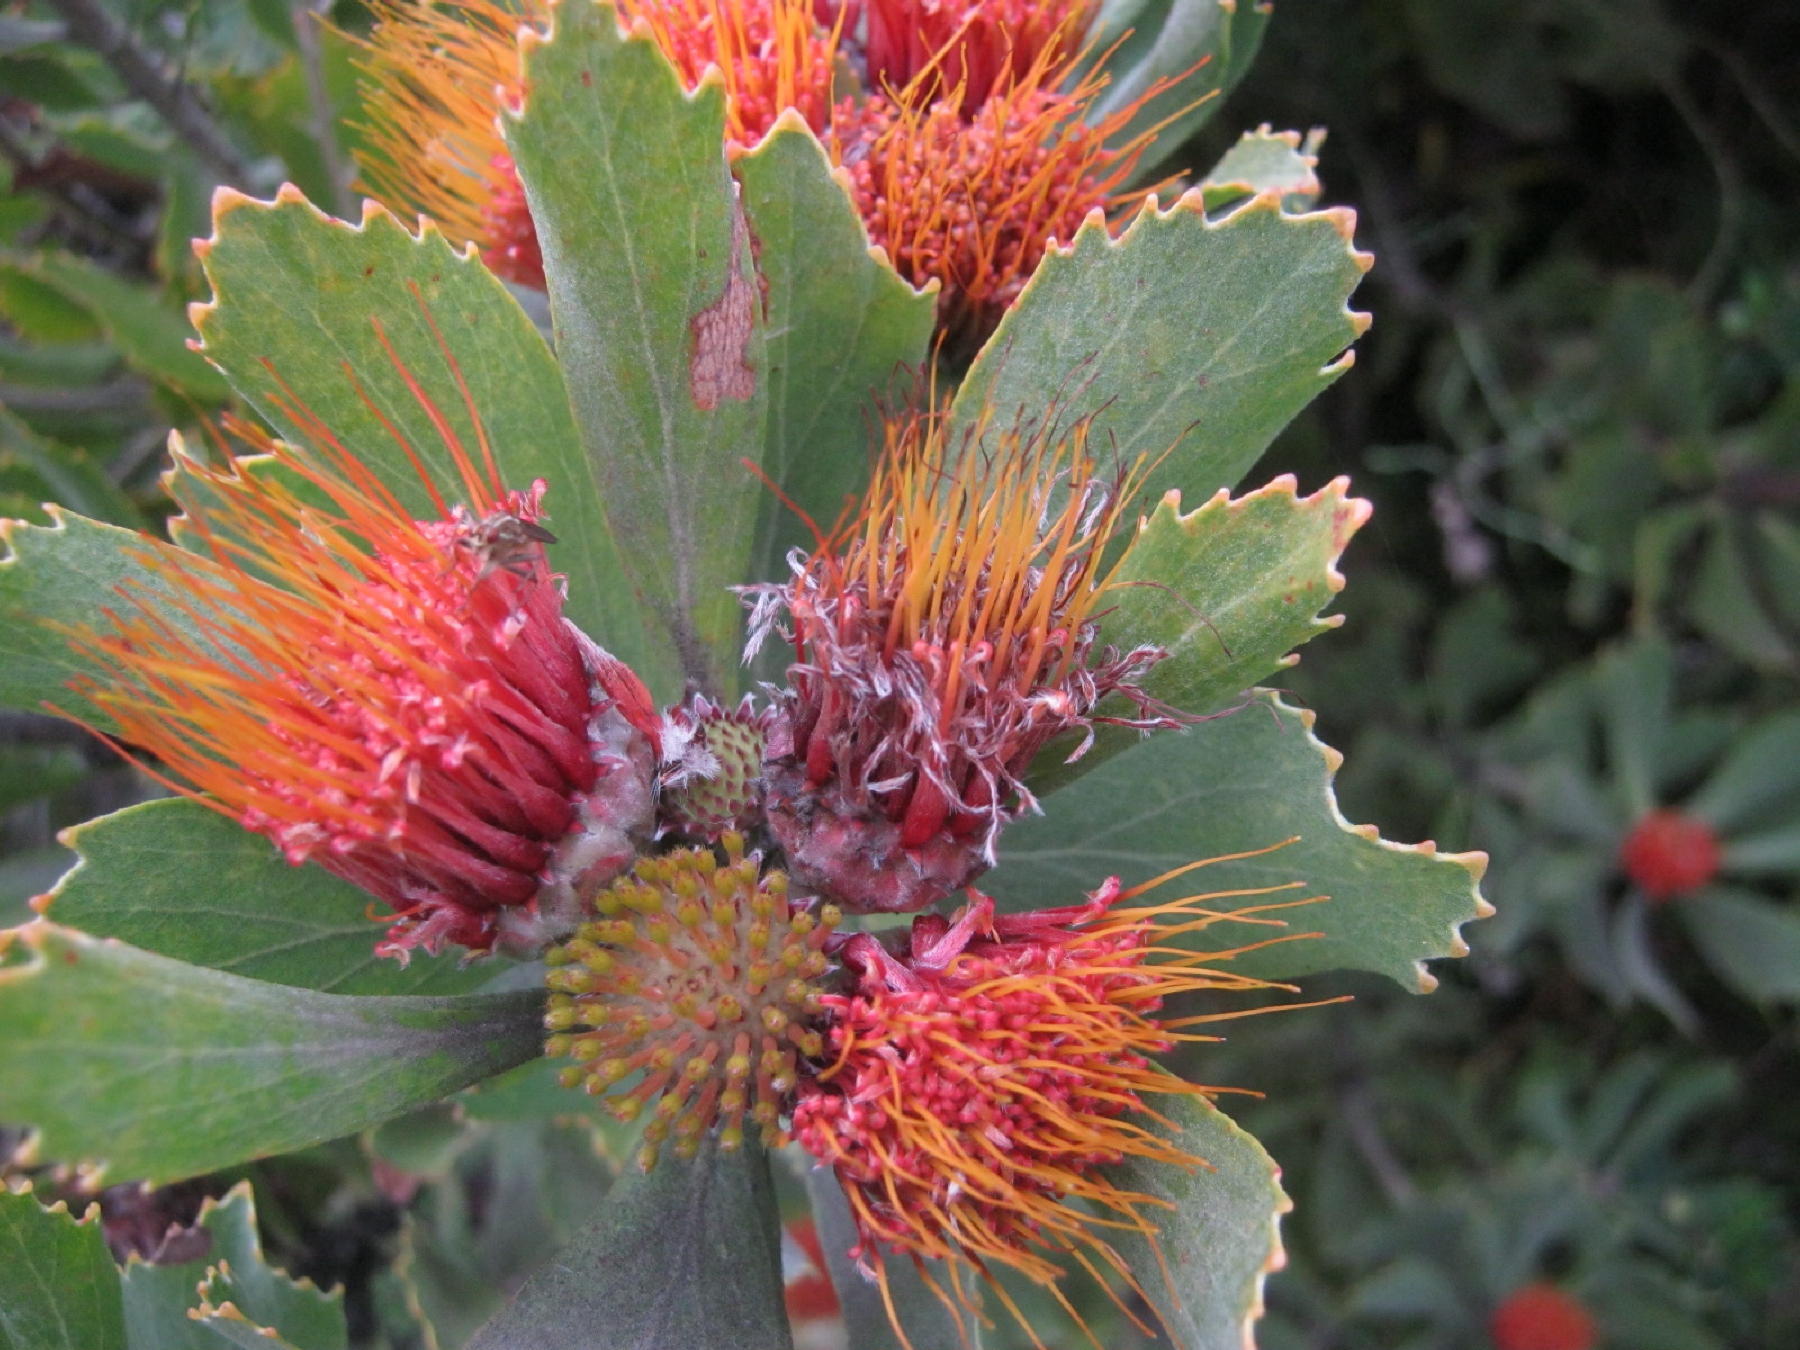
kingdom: Plantae
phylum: Tracheophyta
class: Magnoliopsida
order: Proteales
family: Proteaceae
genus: Leucospermum
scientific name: Leucospermum mundii
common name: Langeberg pincushion
